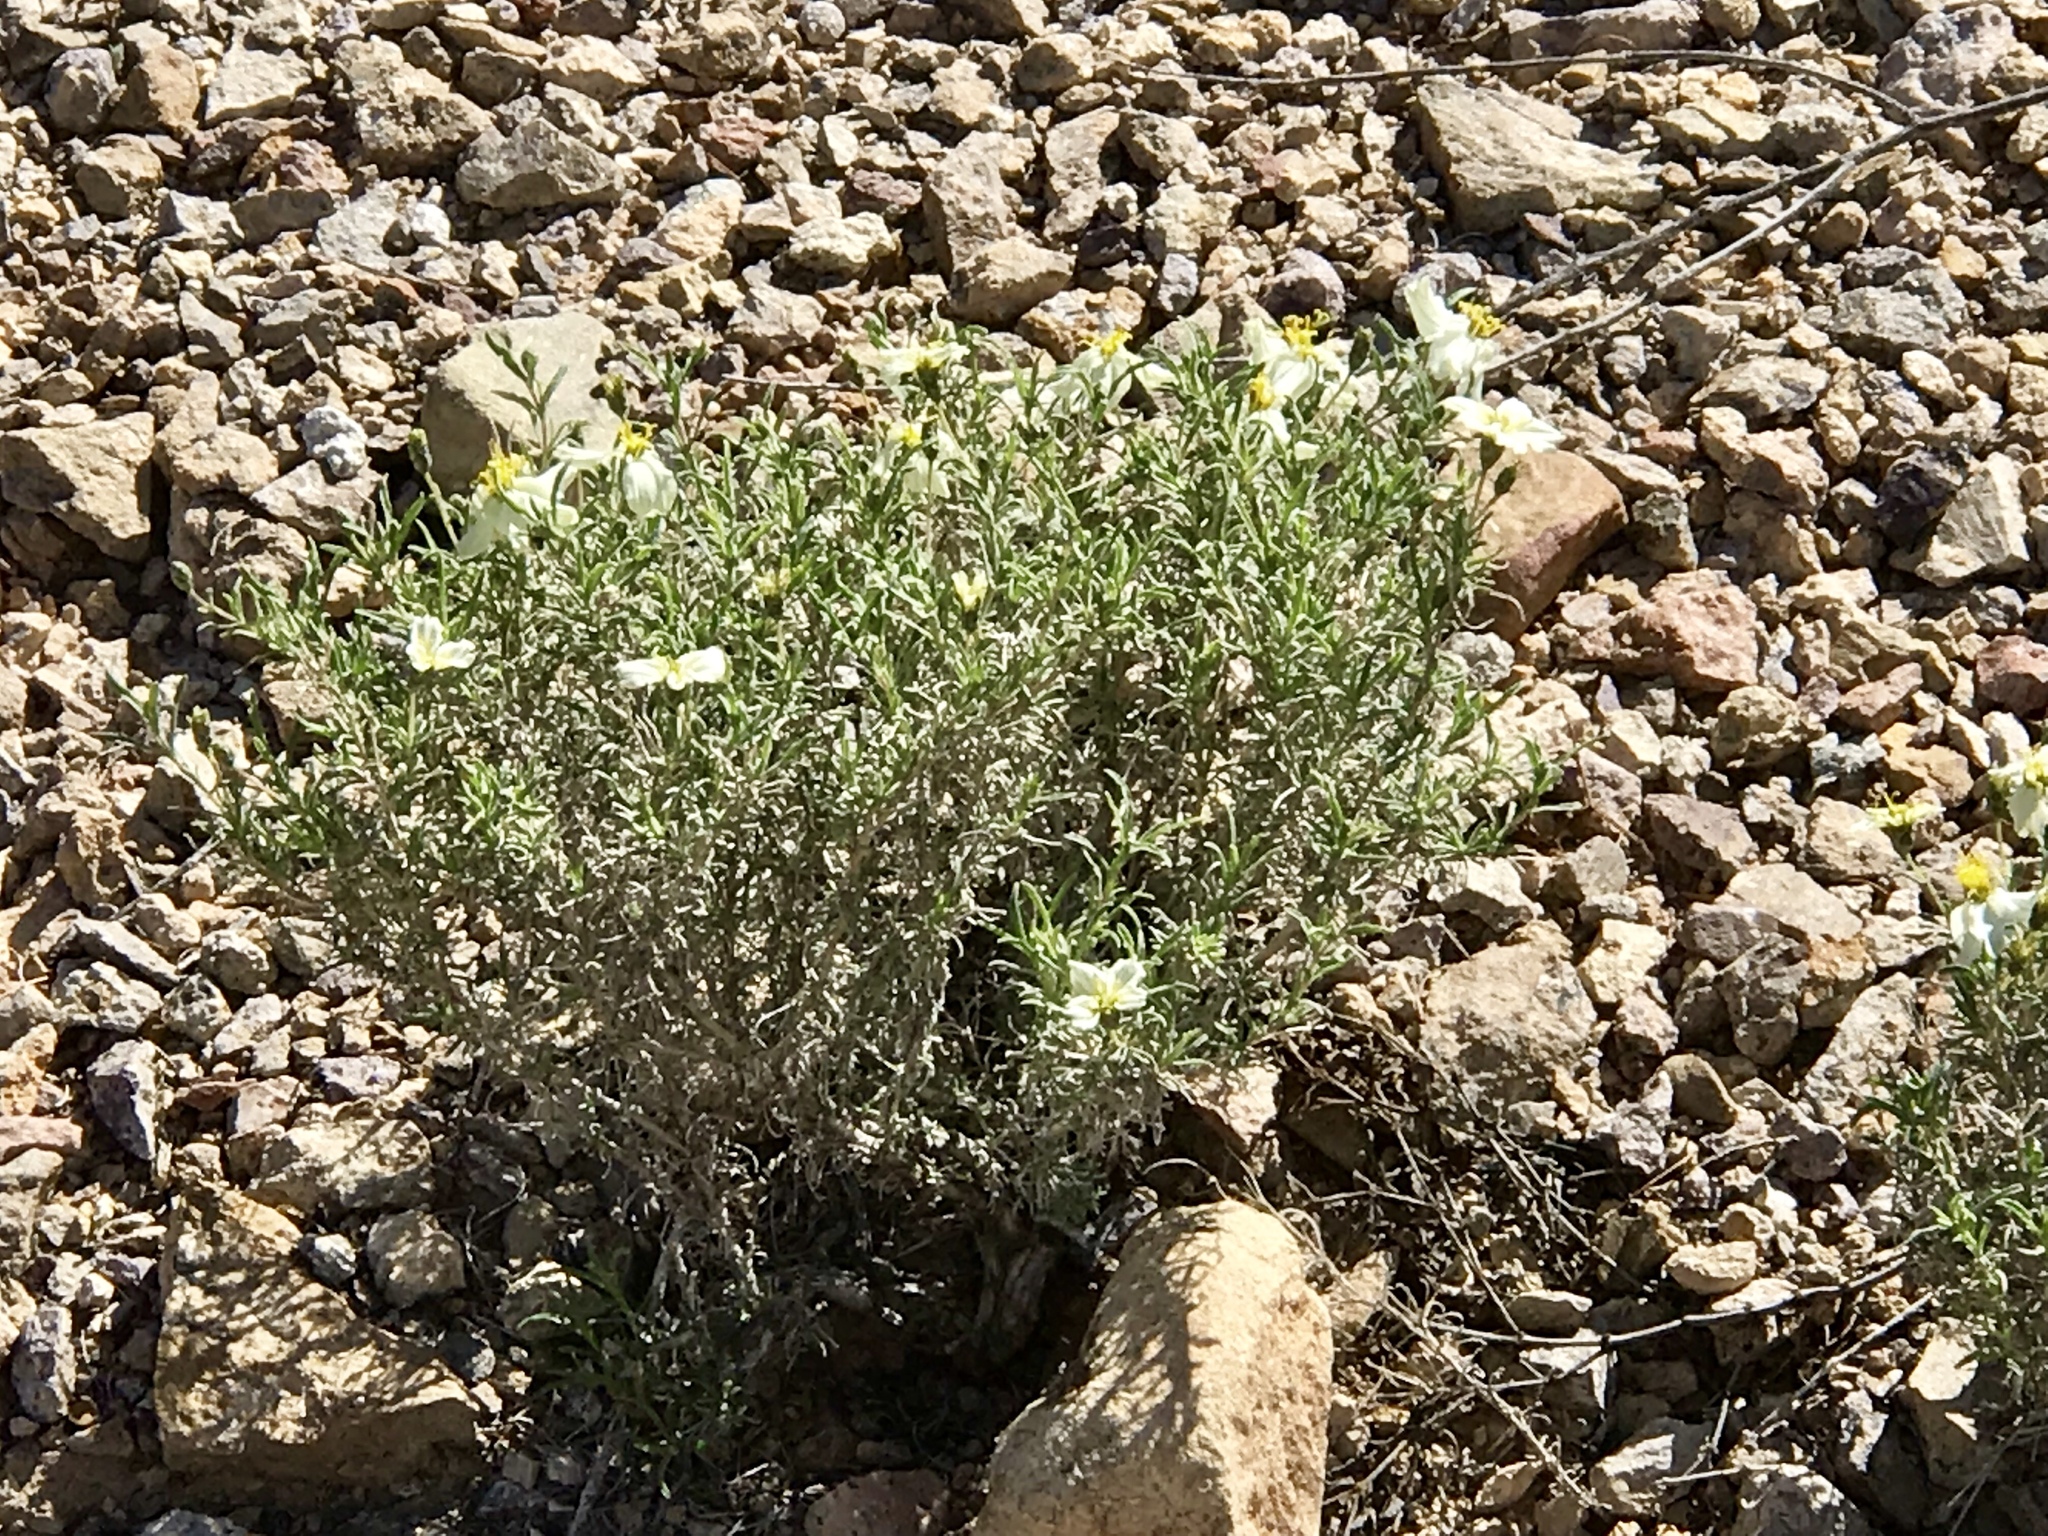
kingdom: Plantae
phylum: Tracheophyta
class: Magnoliopsida
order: Asterales
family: Asteraceae
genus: Zinnia
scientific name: Zinnia acerosa
